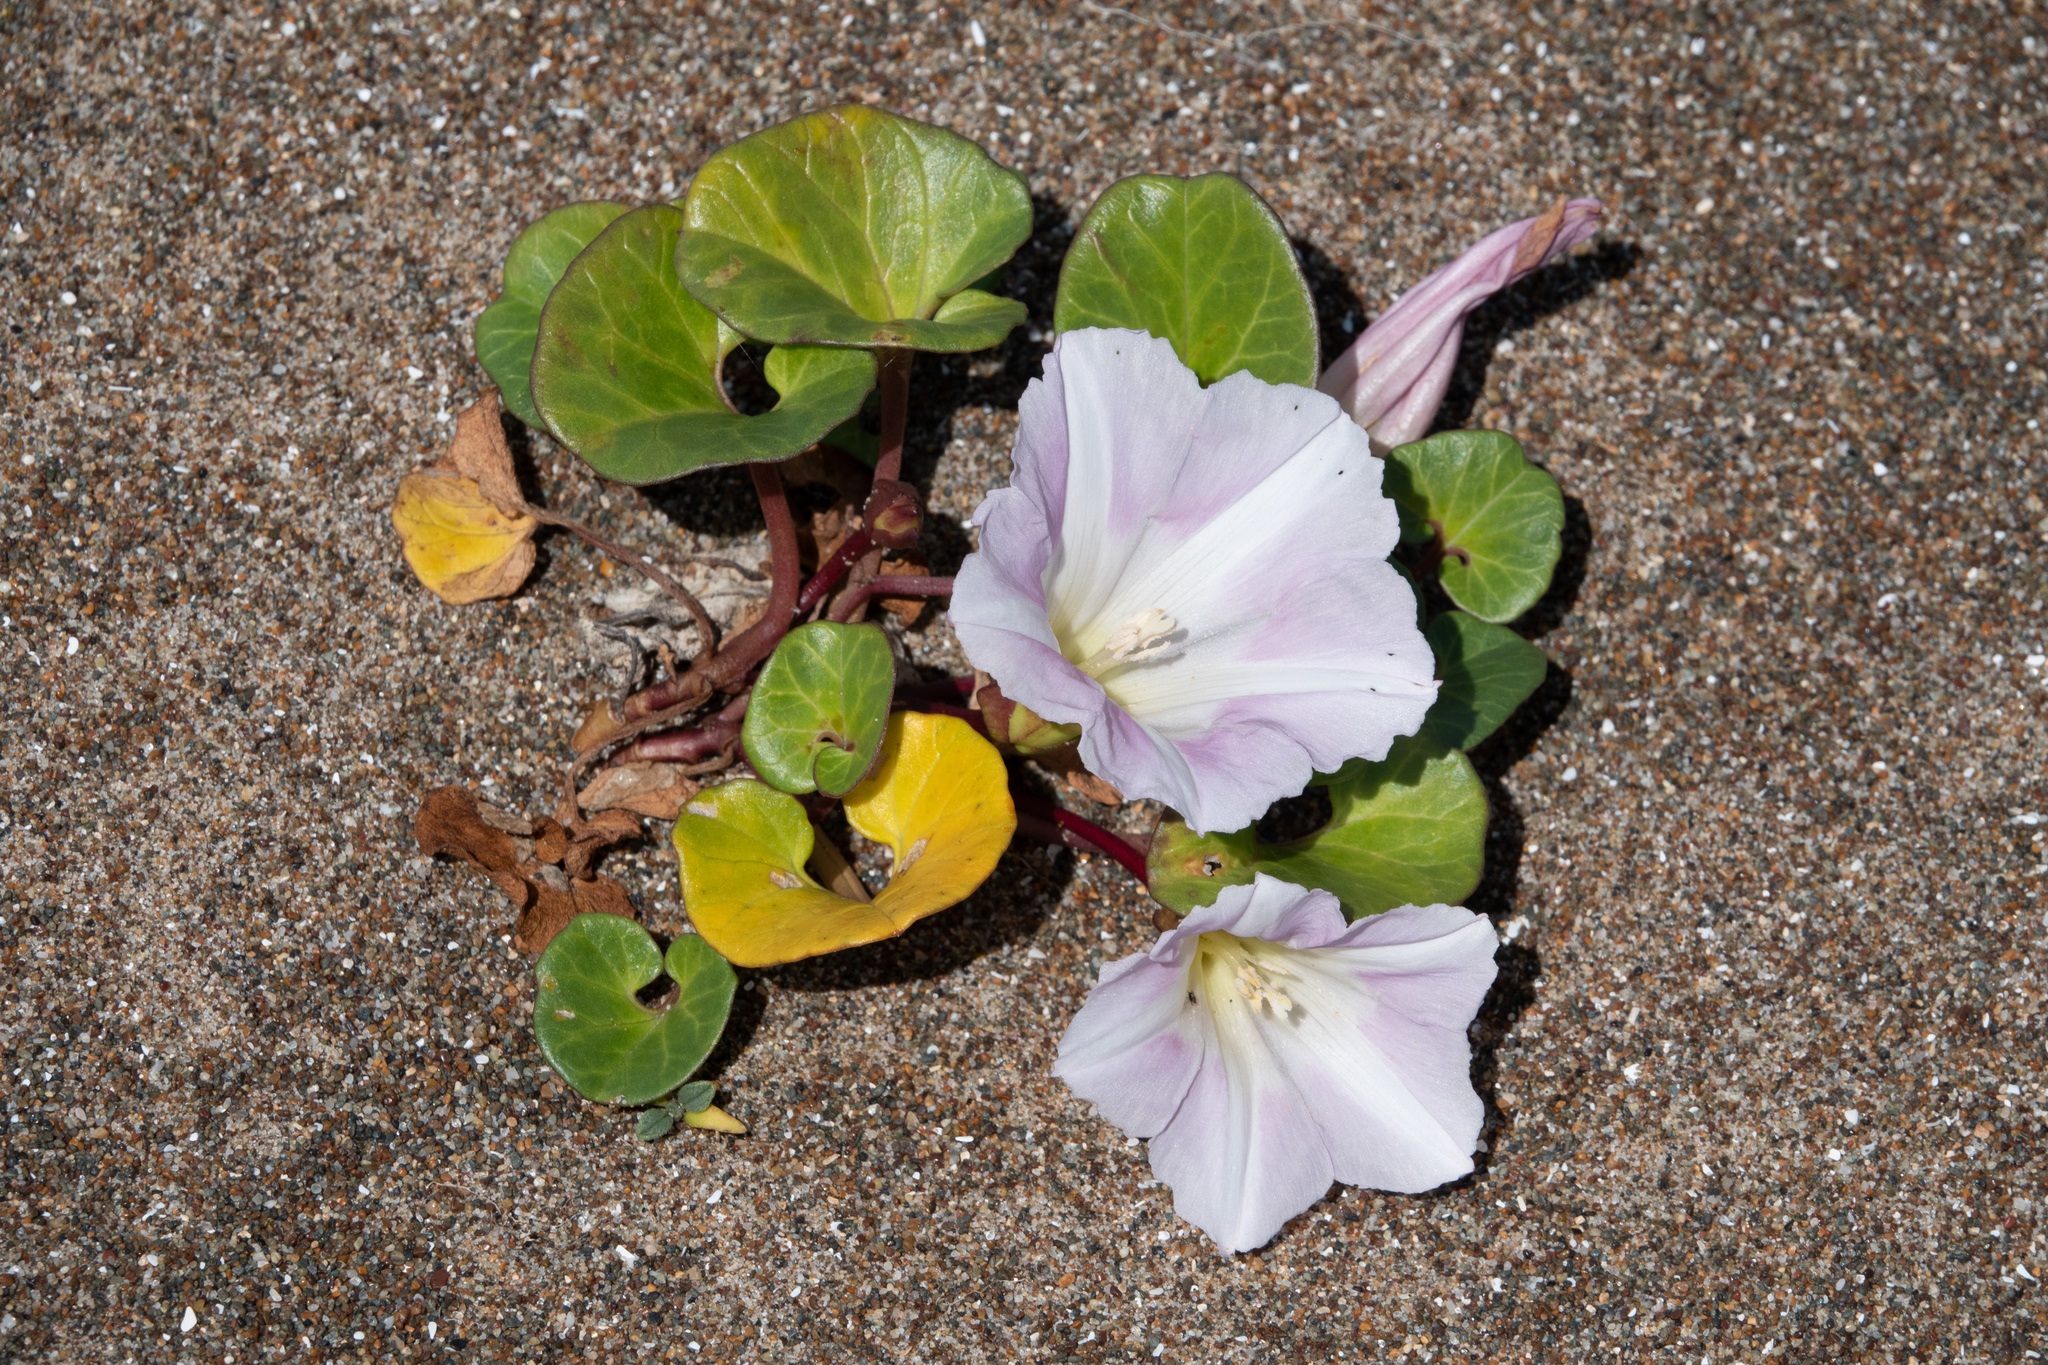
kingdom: Plantae
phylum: Tracheophyta
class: Magnoliopsida
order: Solanales
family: Convolvulaceae
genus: Calystegia
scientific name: Calystegia soldanella
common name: Sea bindweed
